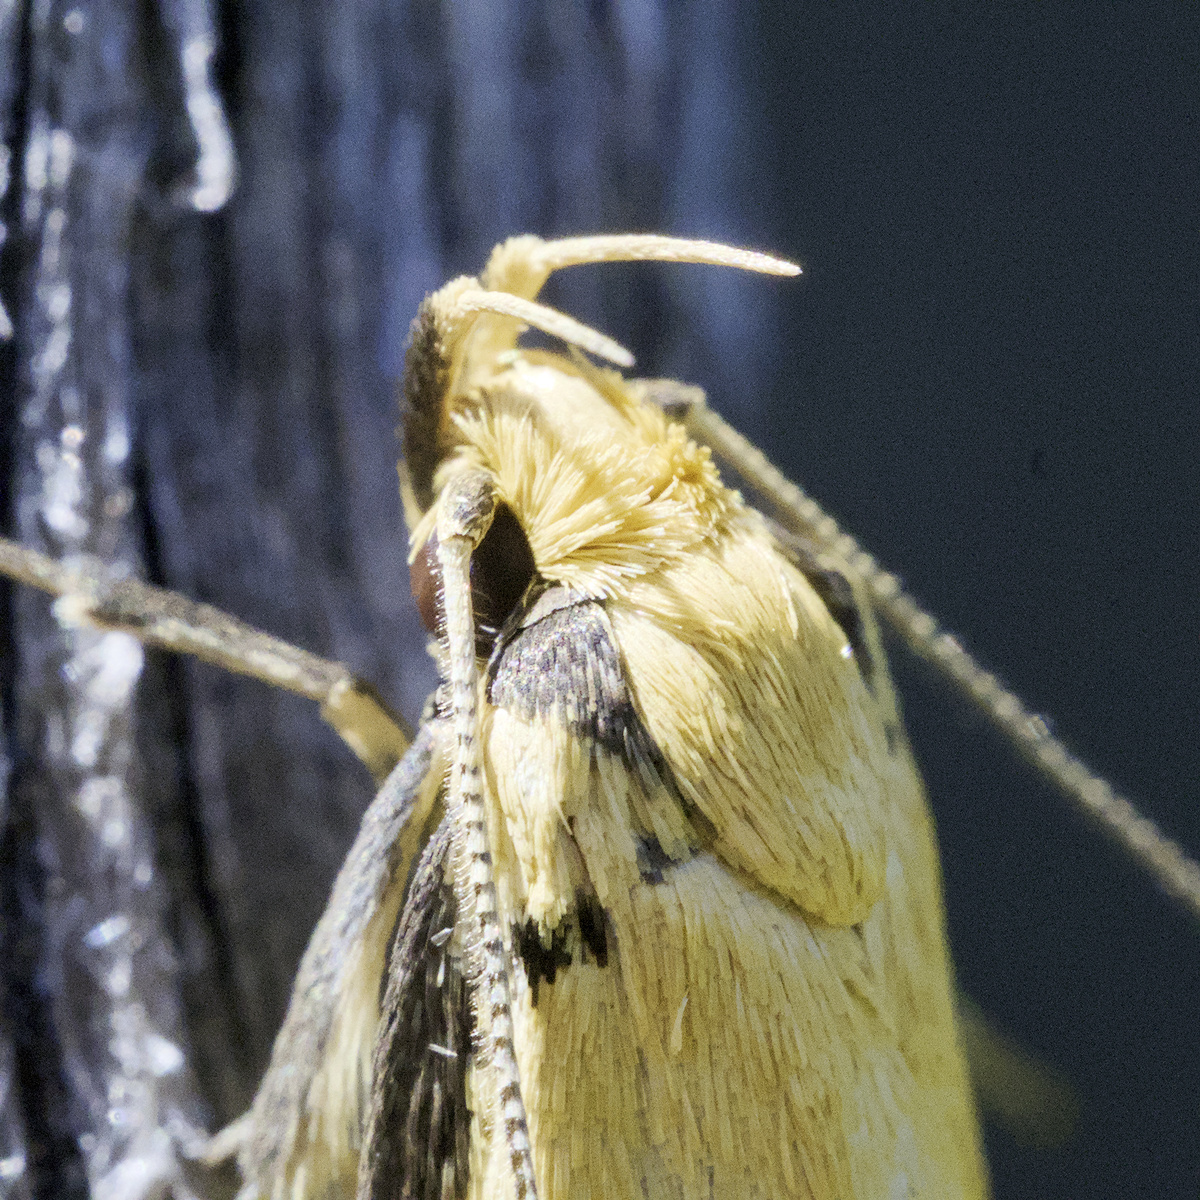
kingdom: Animalia
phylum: Arthropoda
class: Insecta
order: Lepidoptera
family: Oecophoridae
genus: Philobota
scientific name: Philobota protecta
